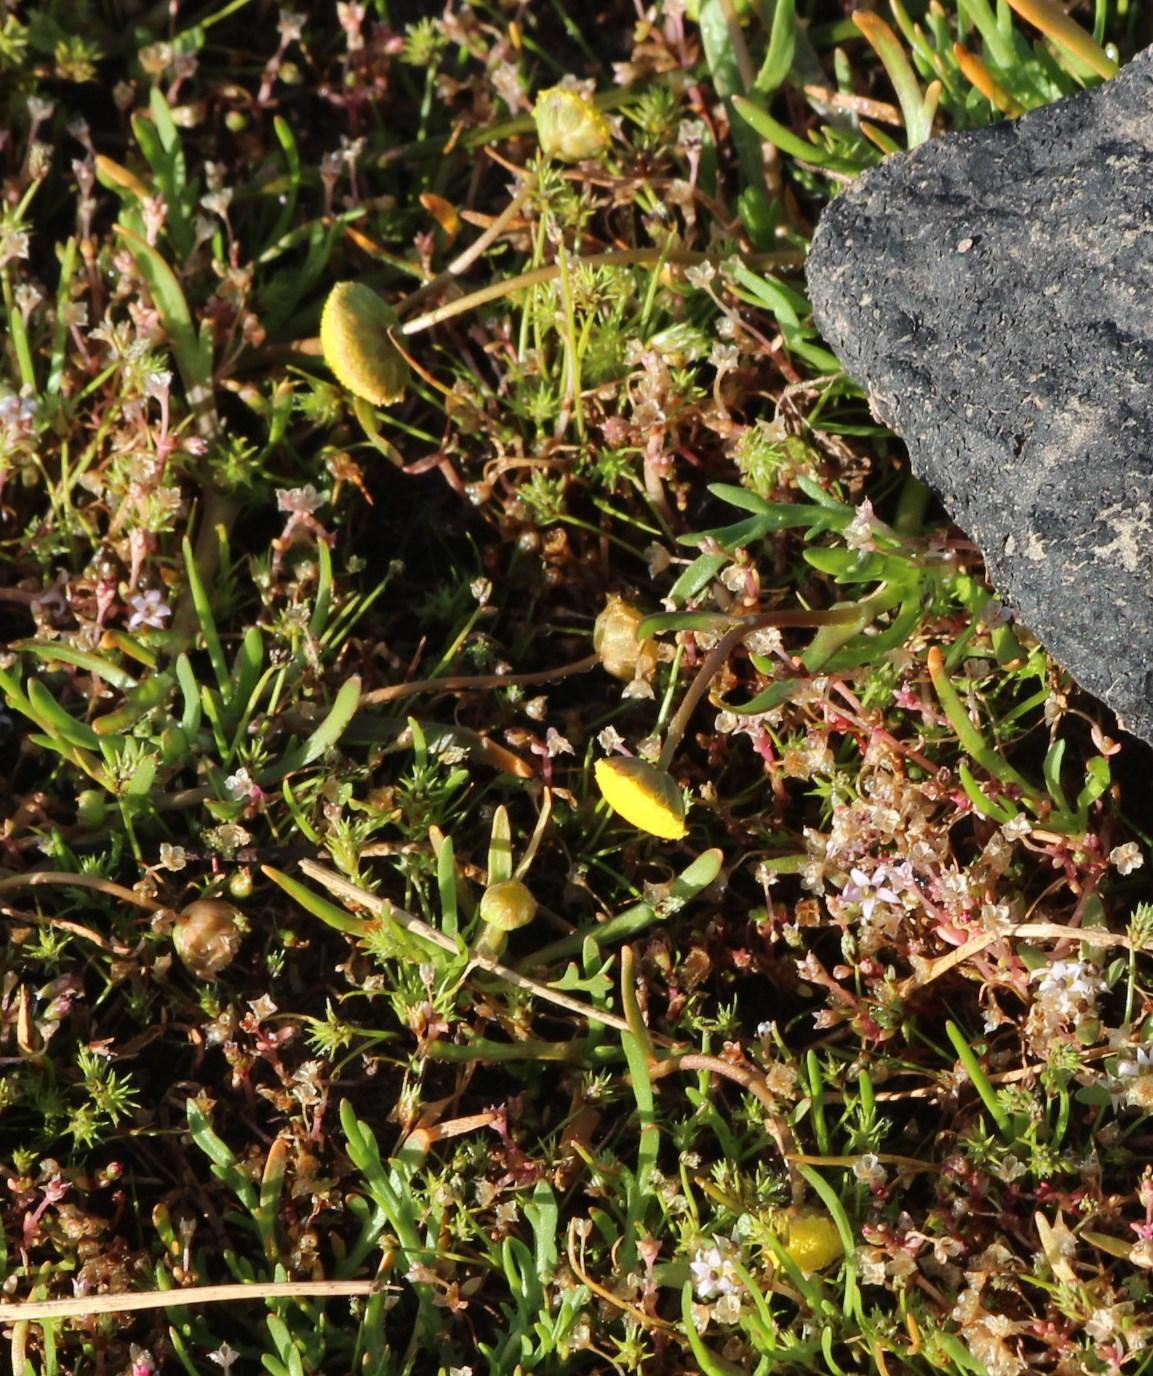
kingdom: Plantae
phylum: Tracheophyta
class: Magnoliopsida
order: Asterales
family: Asteraceae
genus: Cotula
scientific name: Cotula coronopifolia
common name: Buttonweed
